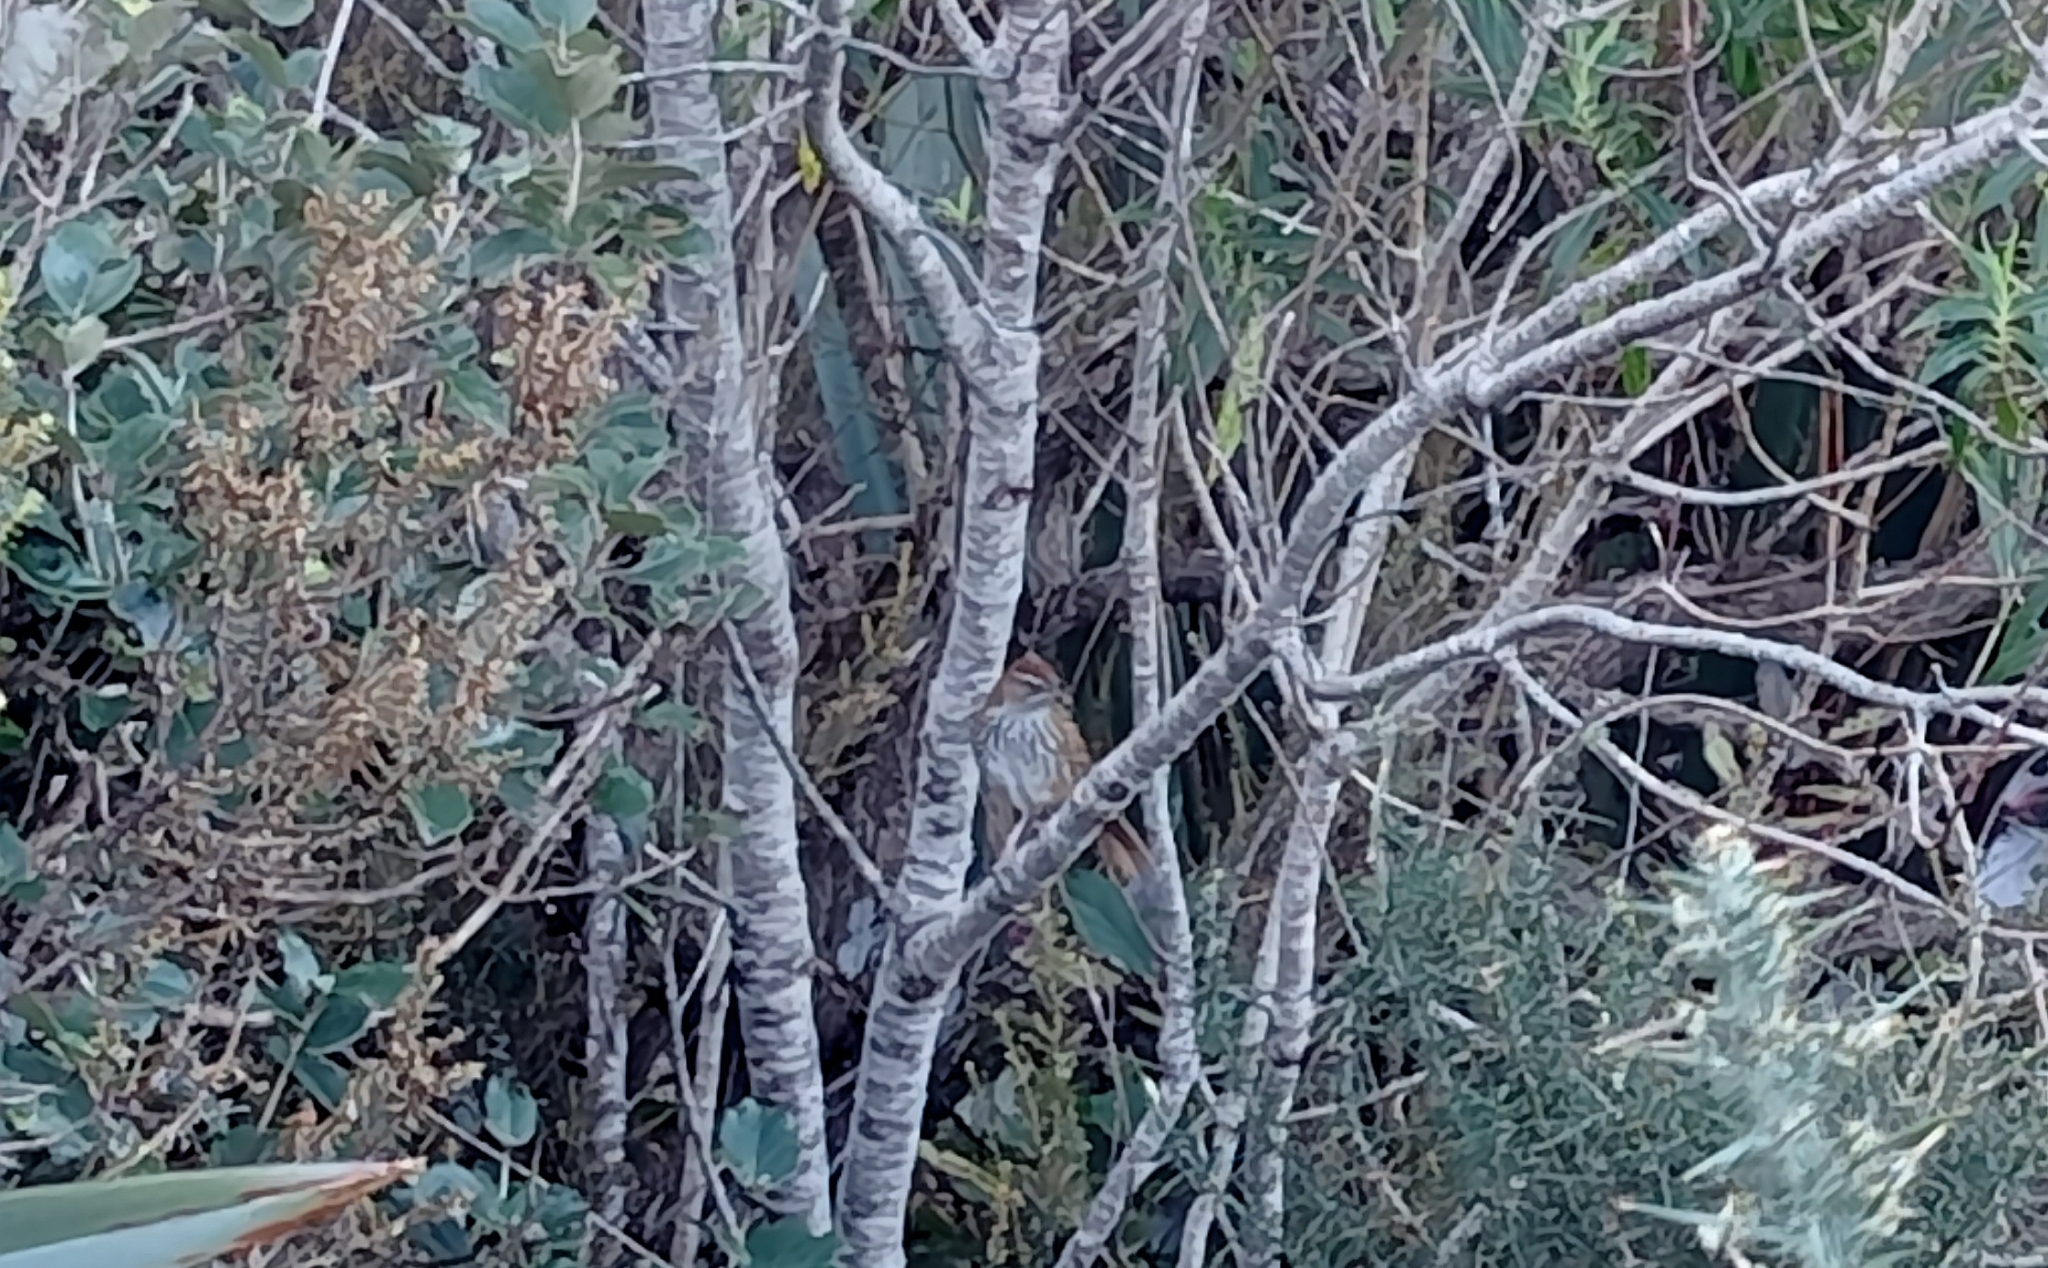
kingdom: Animalia
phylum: Chordata
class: Aves
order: Passeriformes
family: Locustellidae
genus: Poodytes
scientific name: Poodytes punctatus
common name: New zealand fernbird
